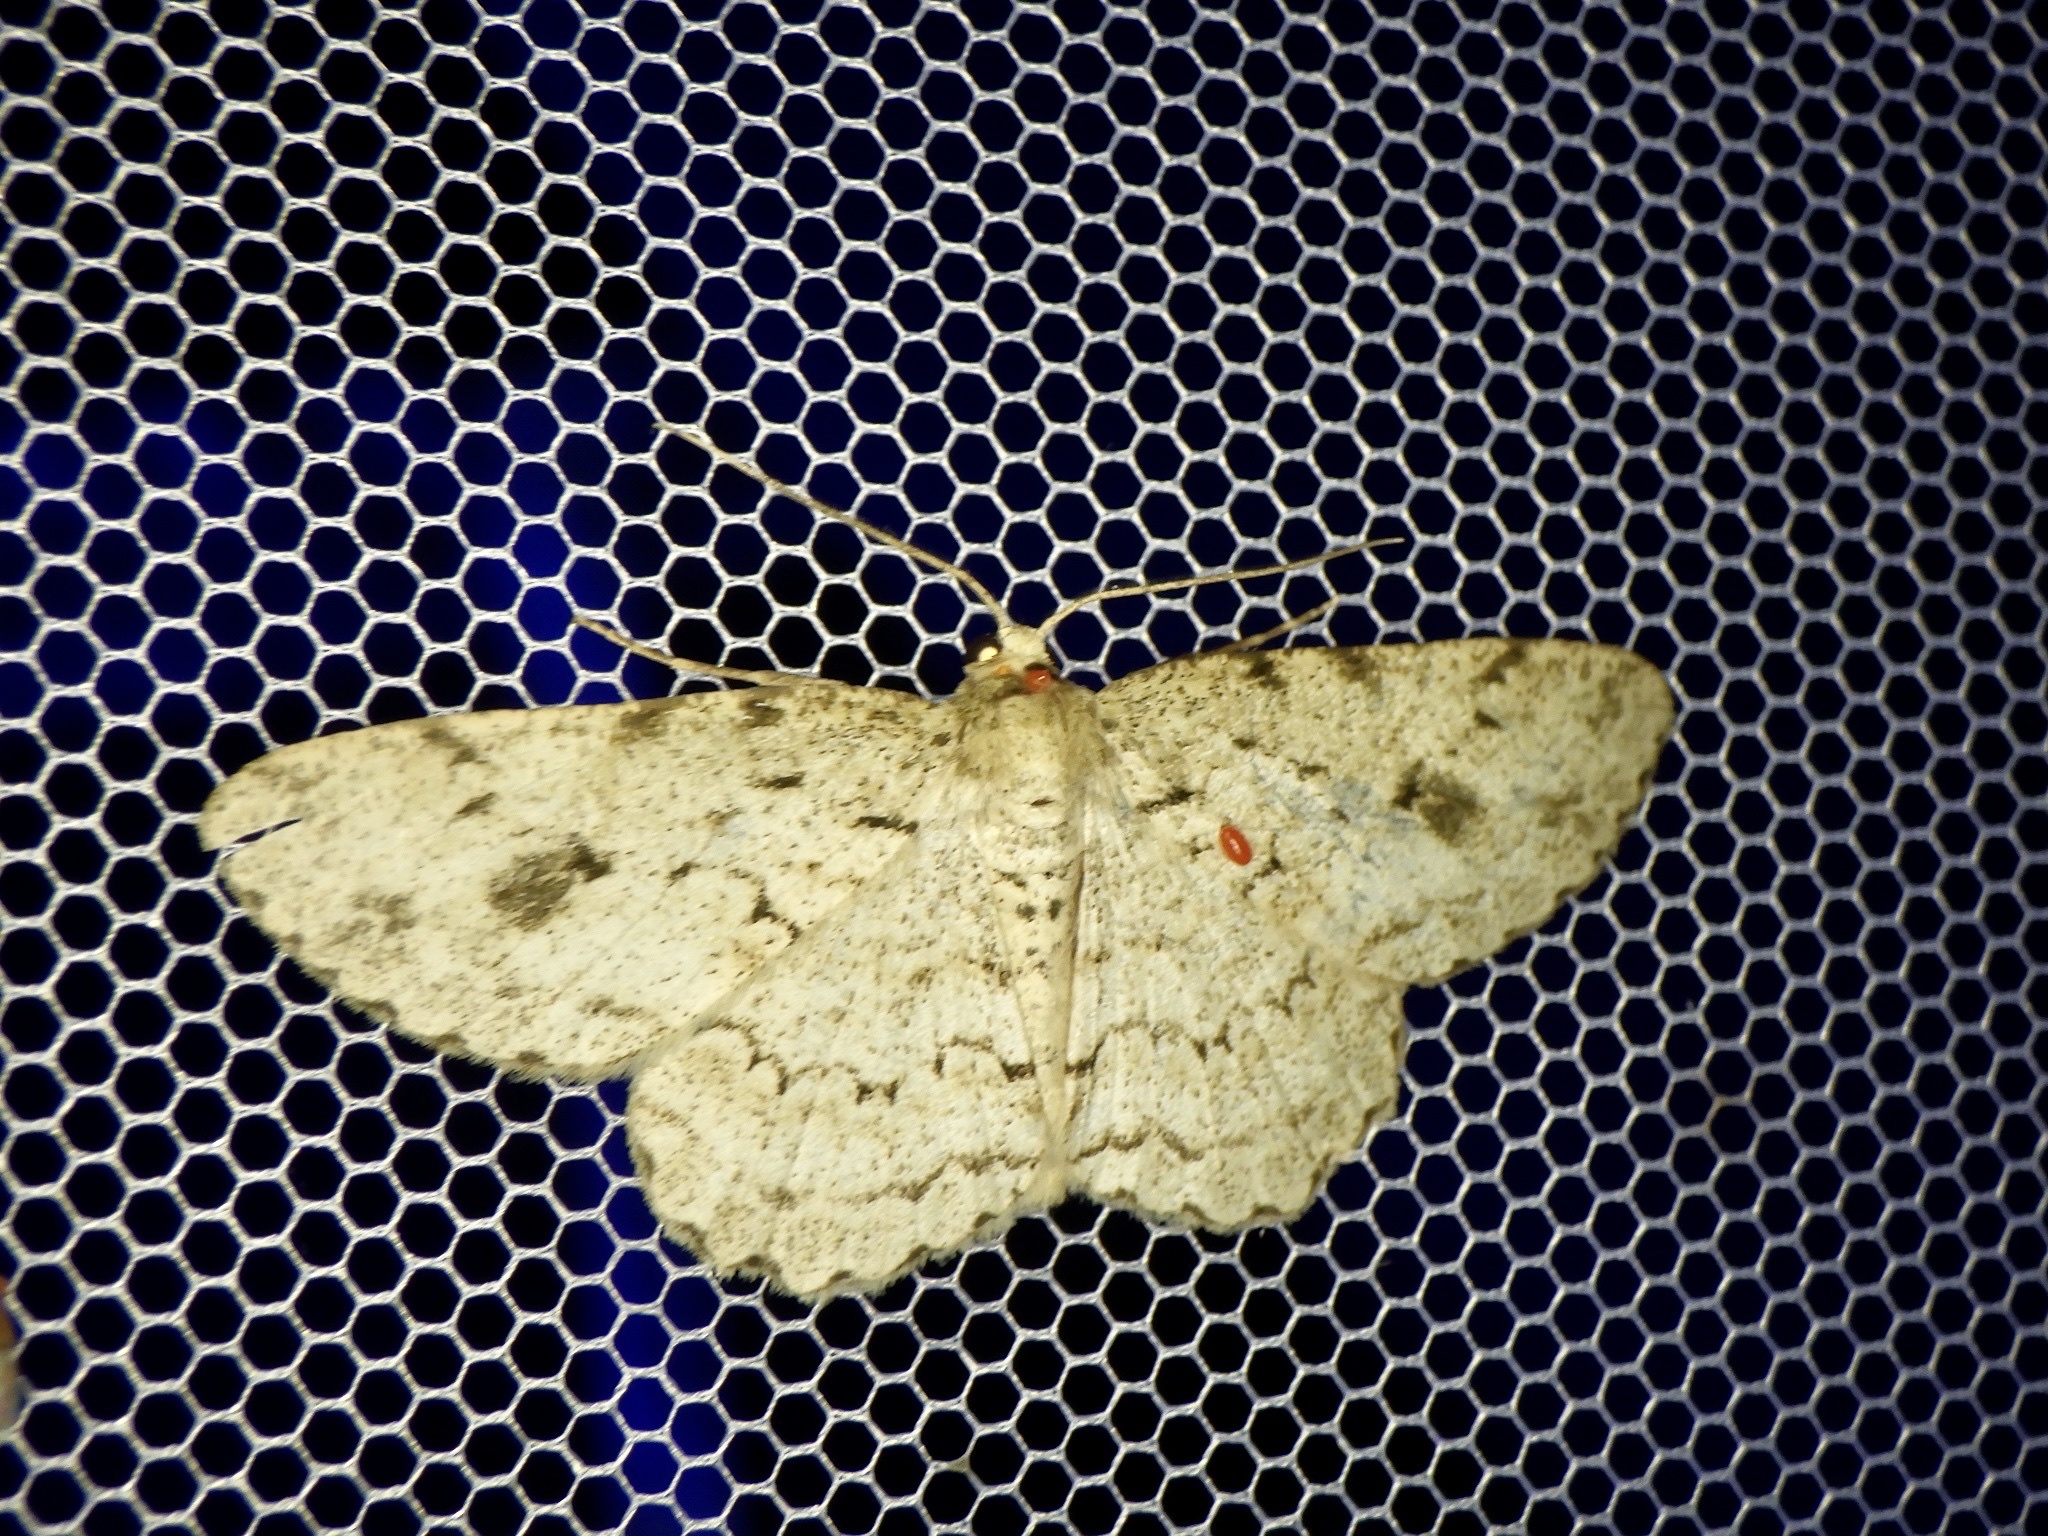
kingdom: Animalia
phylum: Arthropoda
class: Insecta
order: Lepidoptera
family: Geometridae
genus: Ectropis
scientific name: Ectropis excellens
